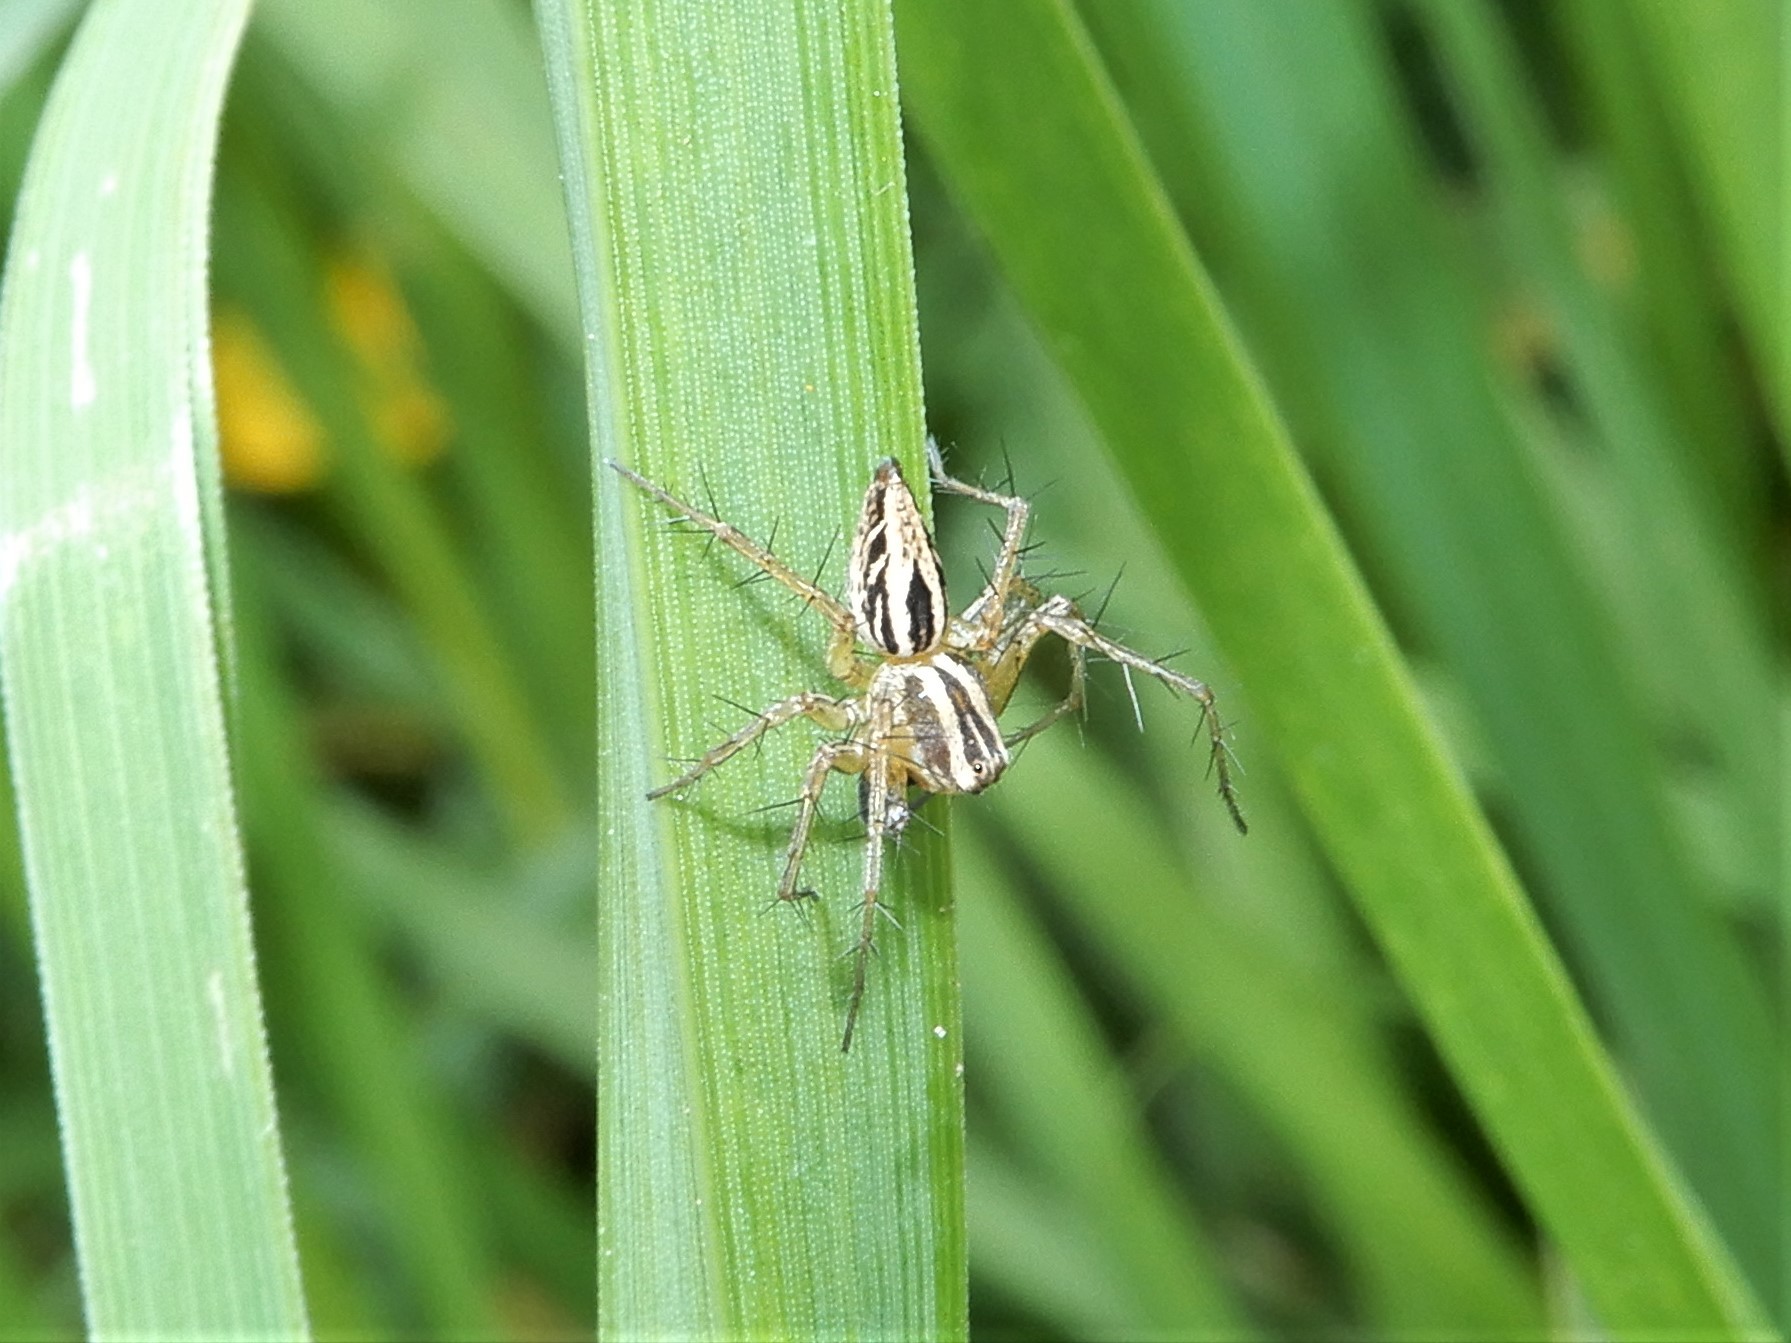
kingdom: Animalia
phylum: Arthropoda
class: Arachnida
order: Araneae
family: Oxyopidae
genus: Oxyopes
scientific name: Oxyopes gracilipes
